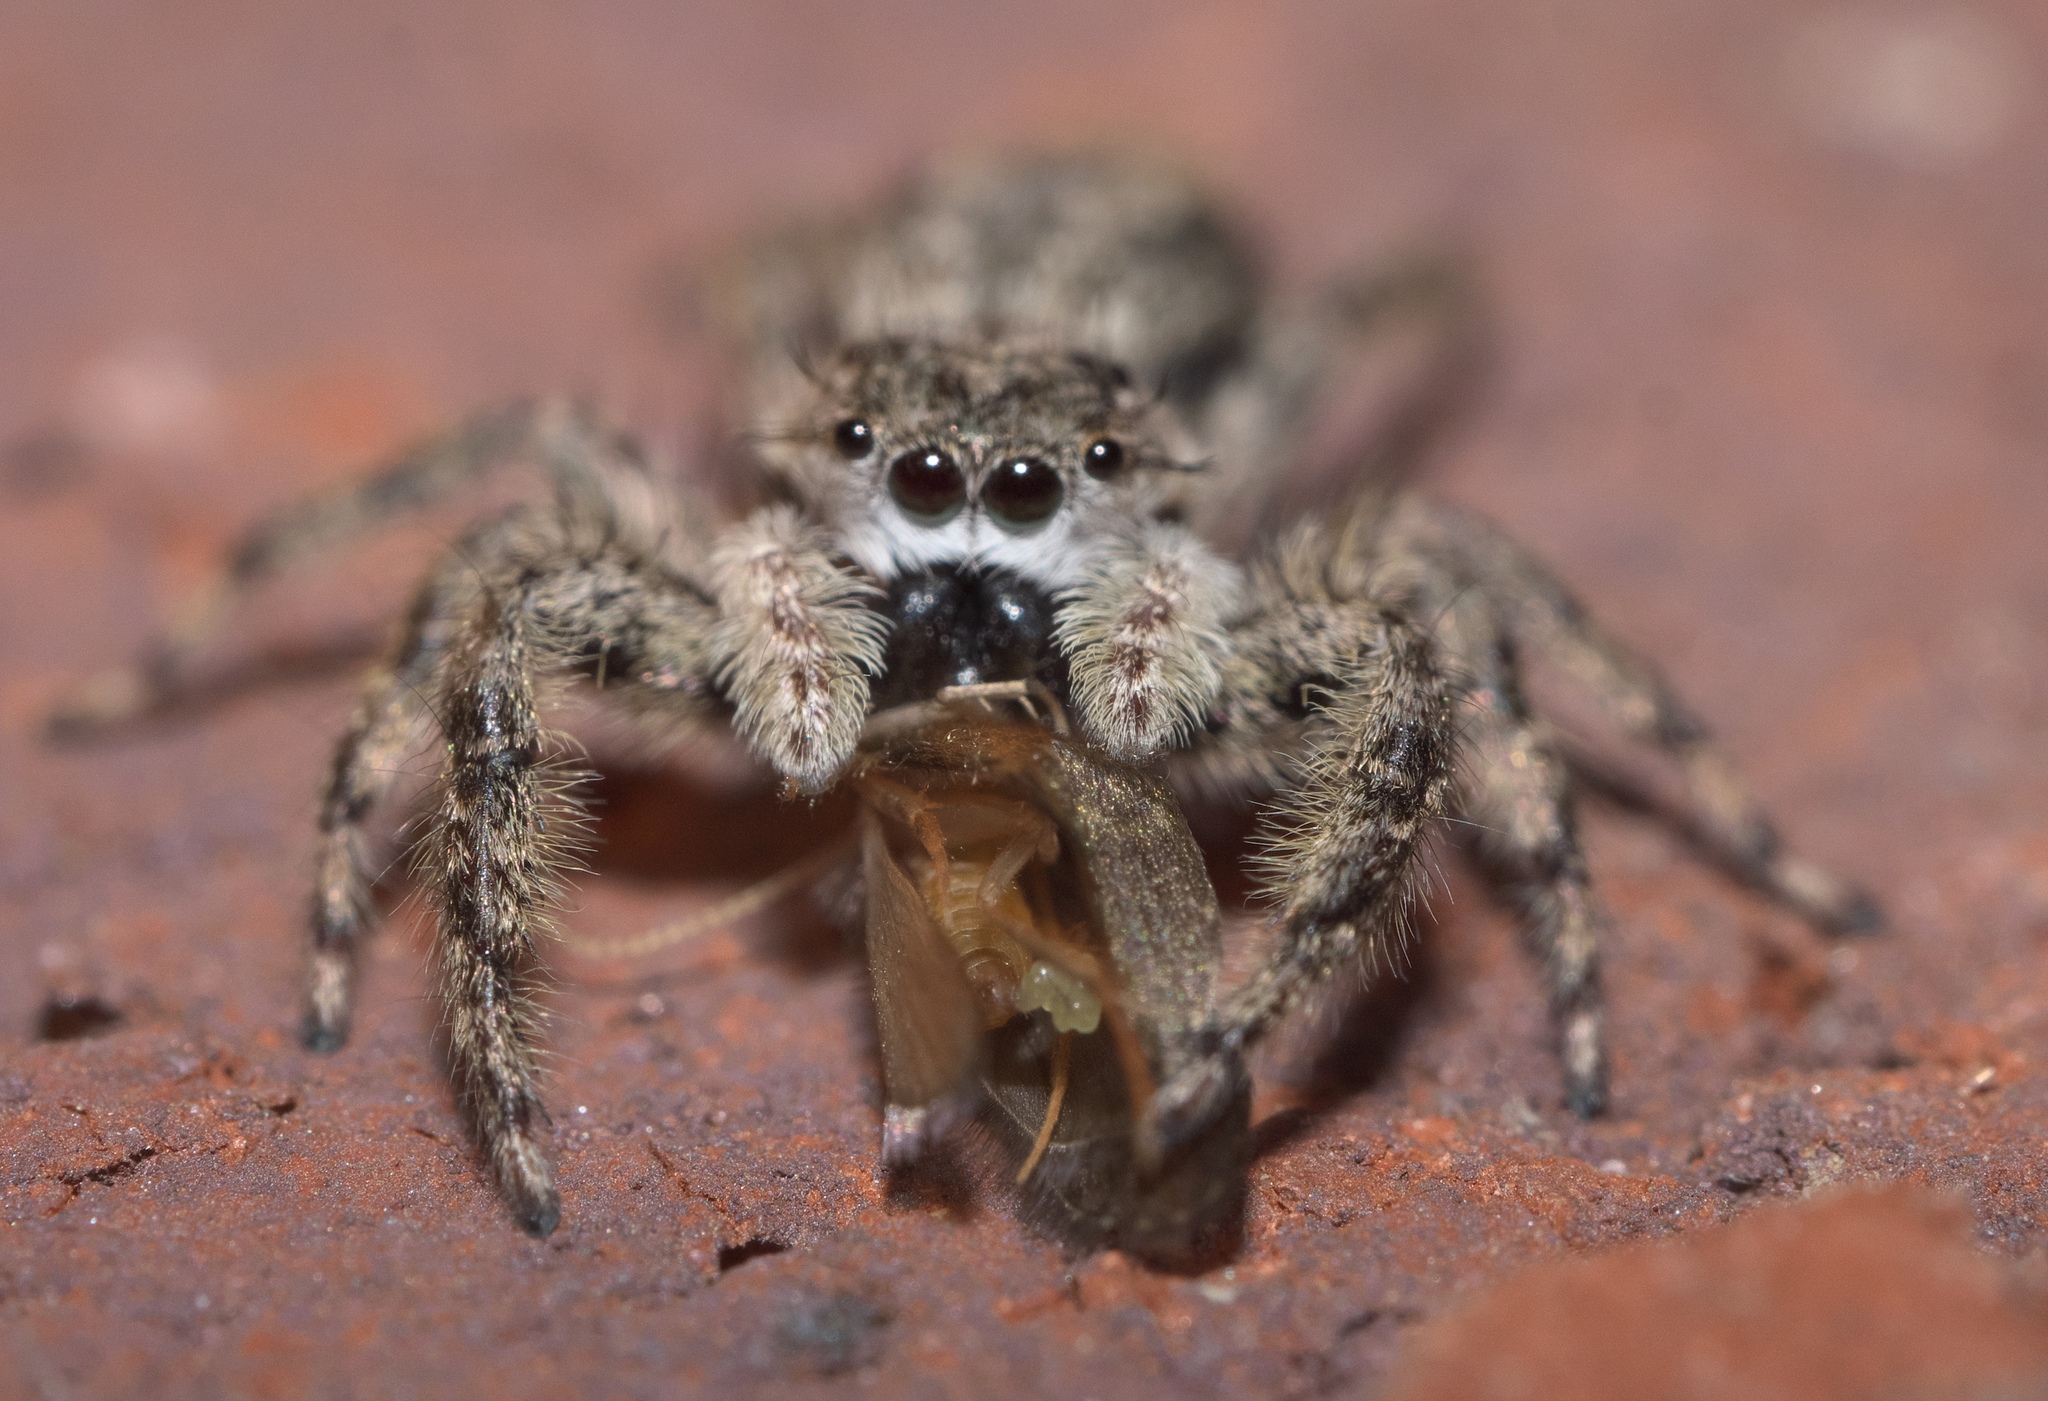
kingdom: Animalia
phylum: Arthropoda
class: Arachnida
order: Araneae
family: Salticidae
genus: Platycryptus
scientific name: Platycryptus undatus
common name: Tan jumping spider
